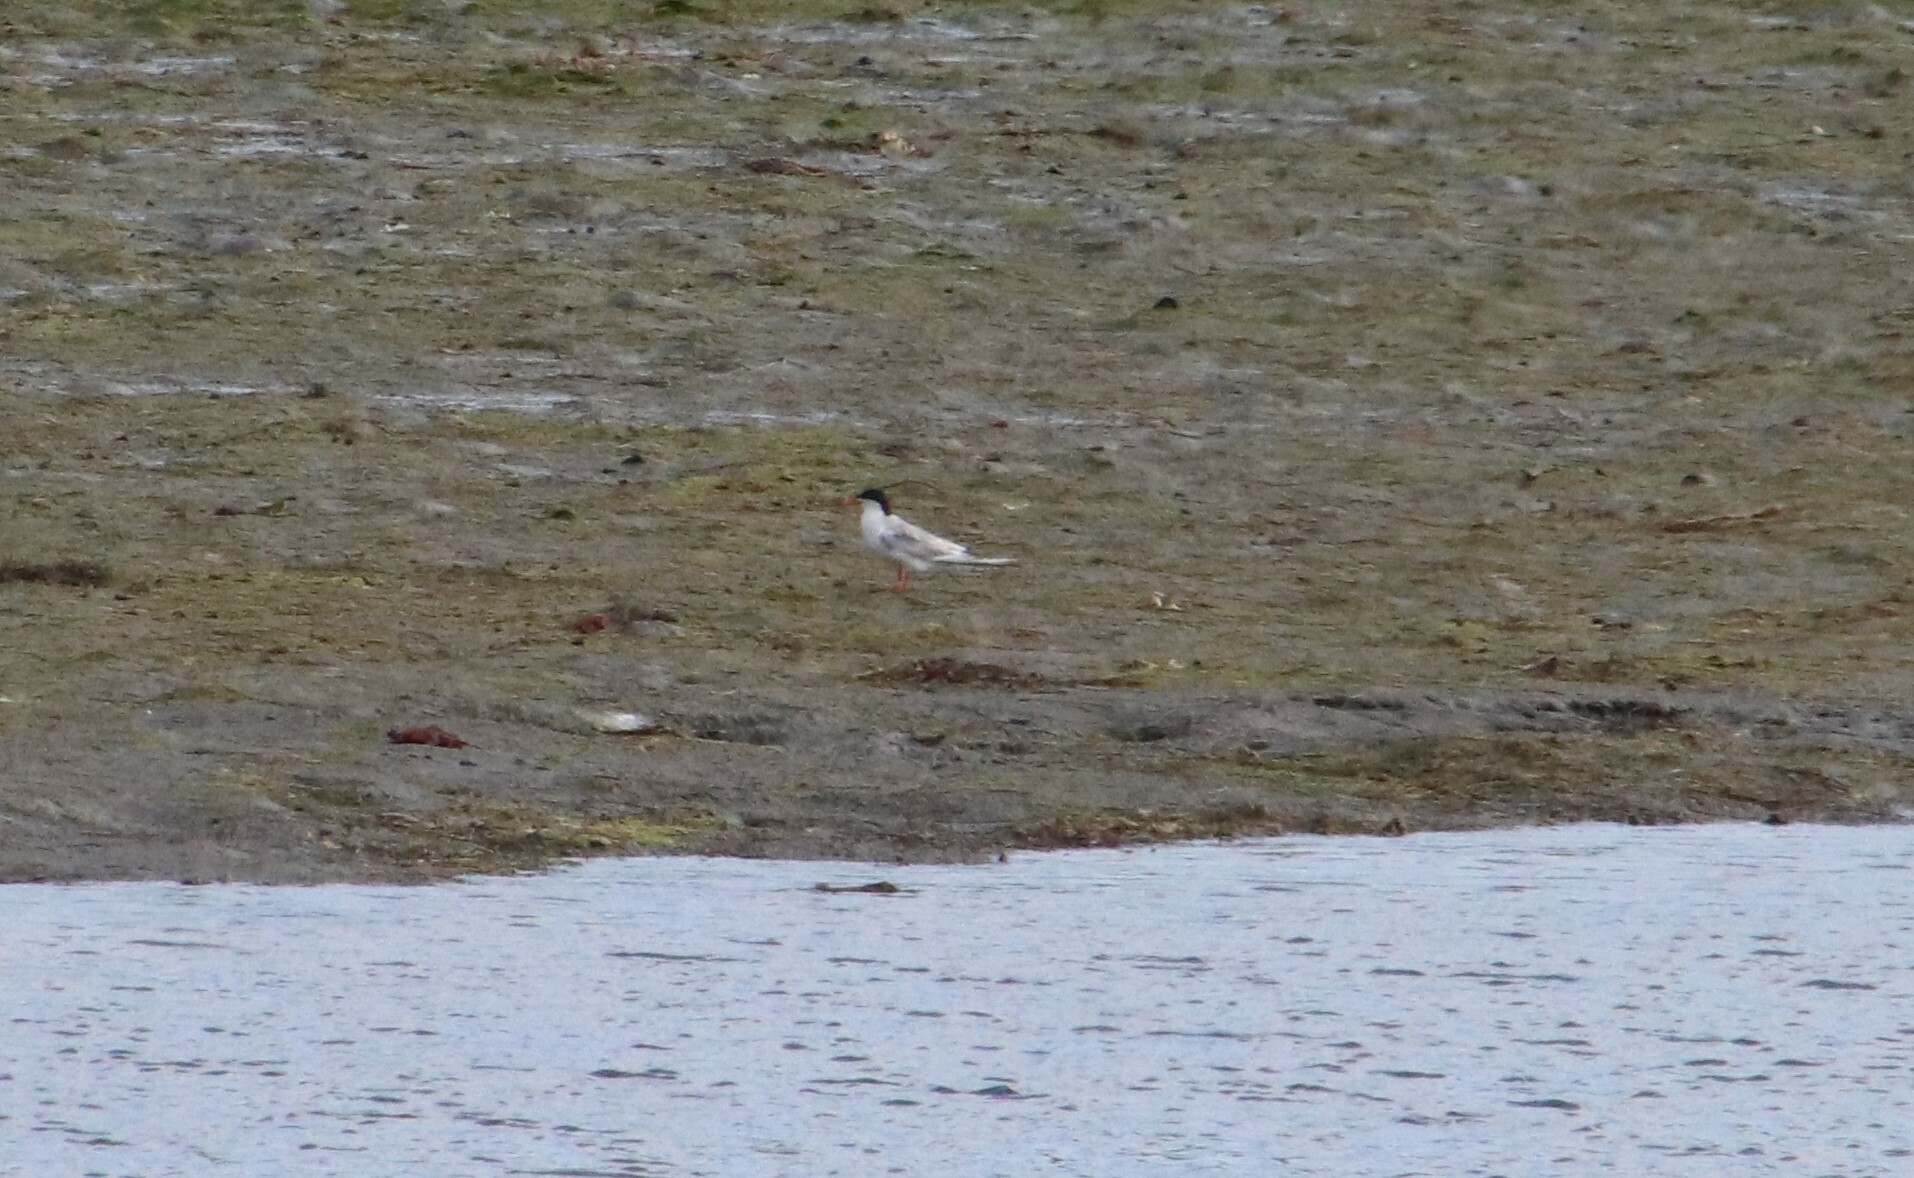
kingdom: Animalia
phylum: Chordata
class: Aves
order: Charadriiformes
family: Laridae
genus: Sterna
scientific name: Sterna forsteri
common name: Forster's tern
